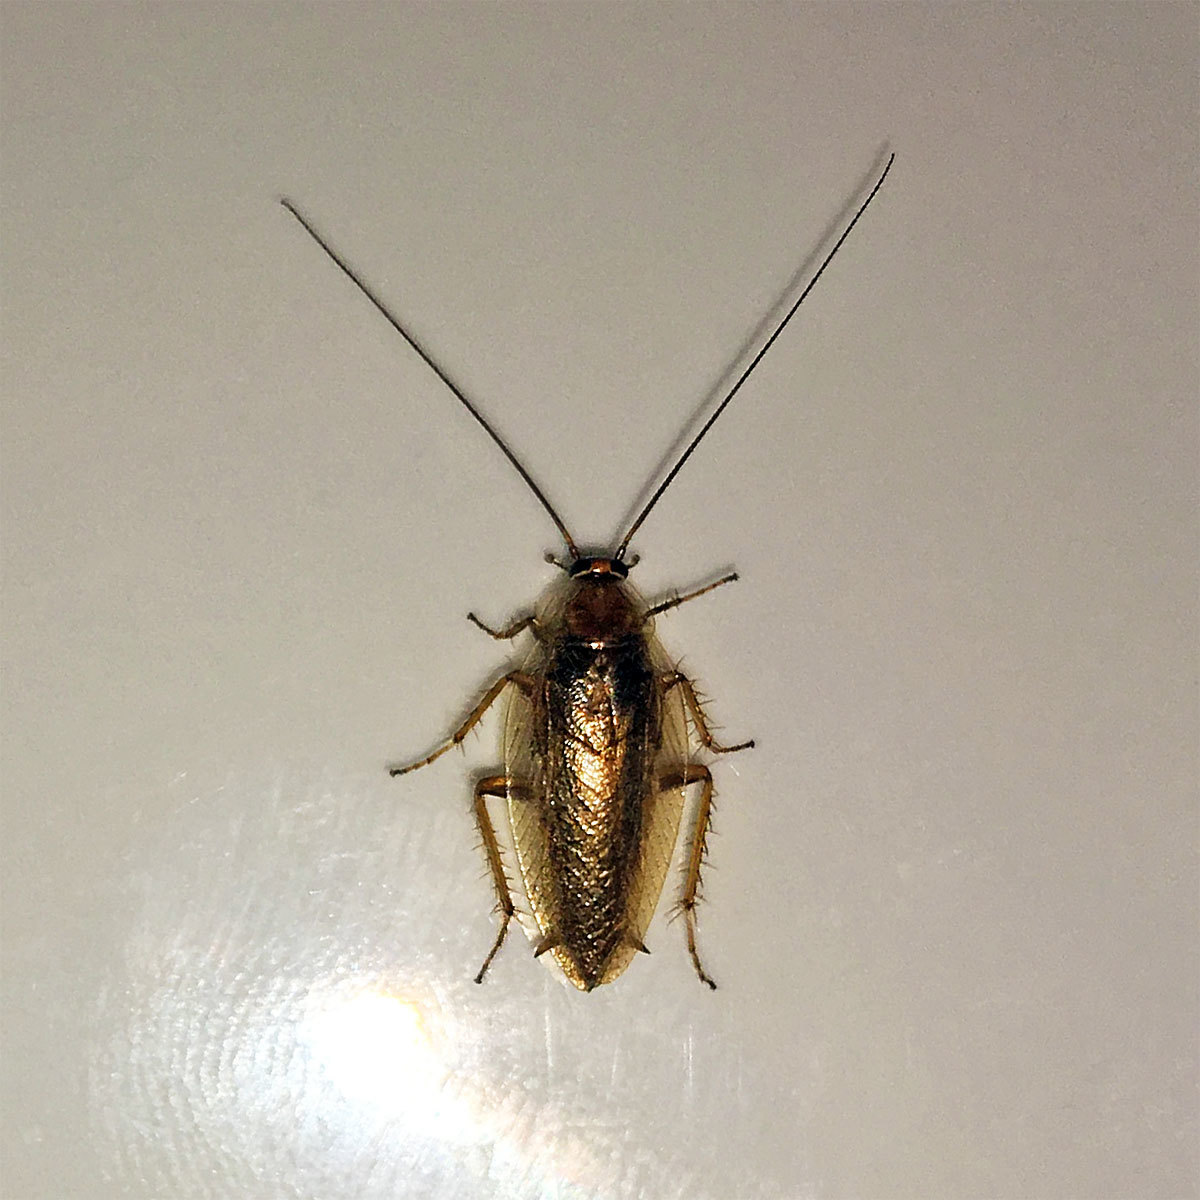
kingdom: Animalia
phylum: Arthropoda
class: Insecta
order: Blattodea
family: Ectobiidae
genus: Ectobius
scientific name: Ectobius vittiventris
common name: Garden cockroach
